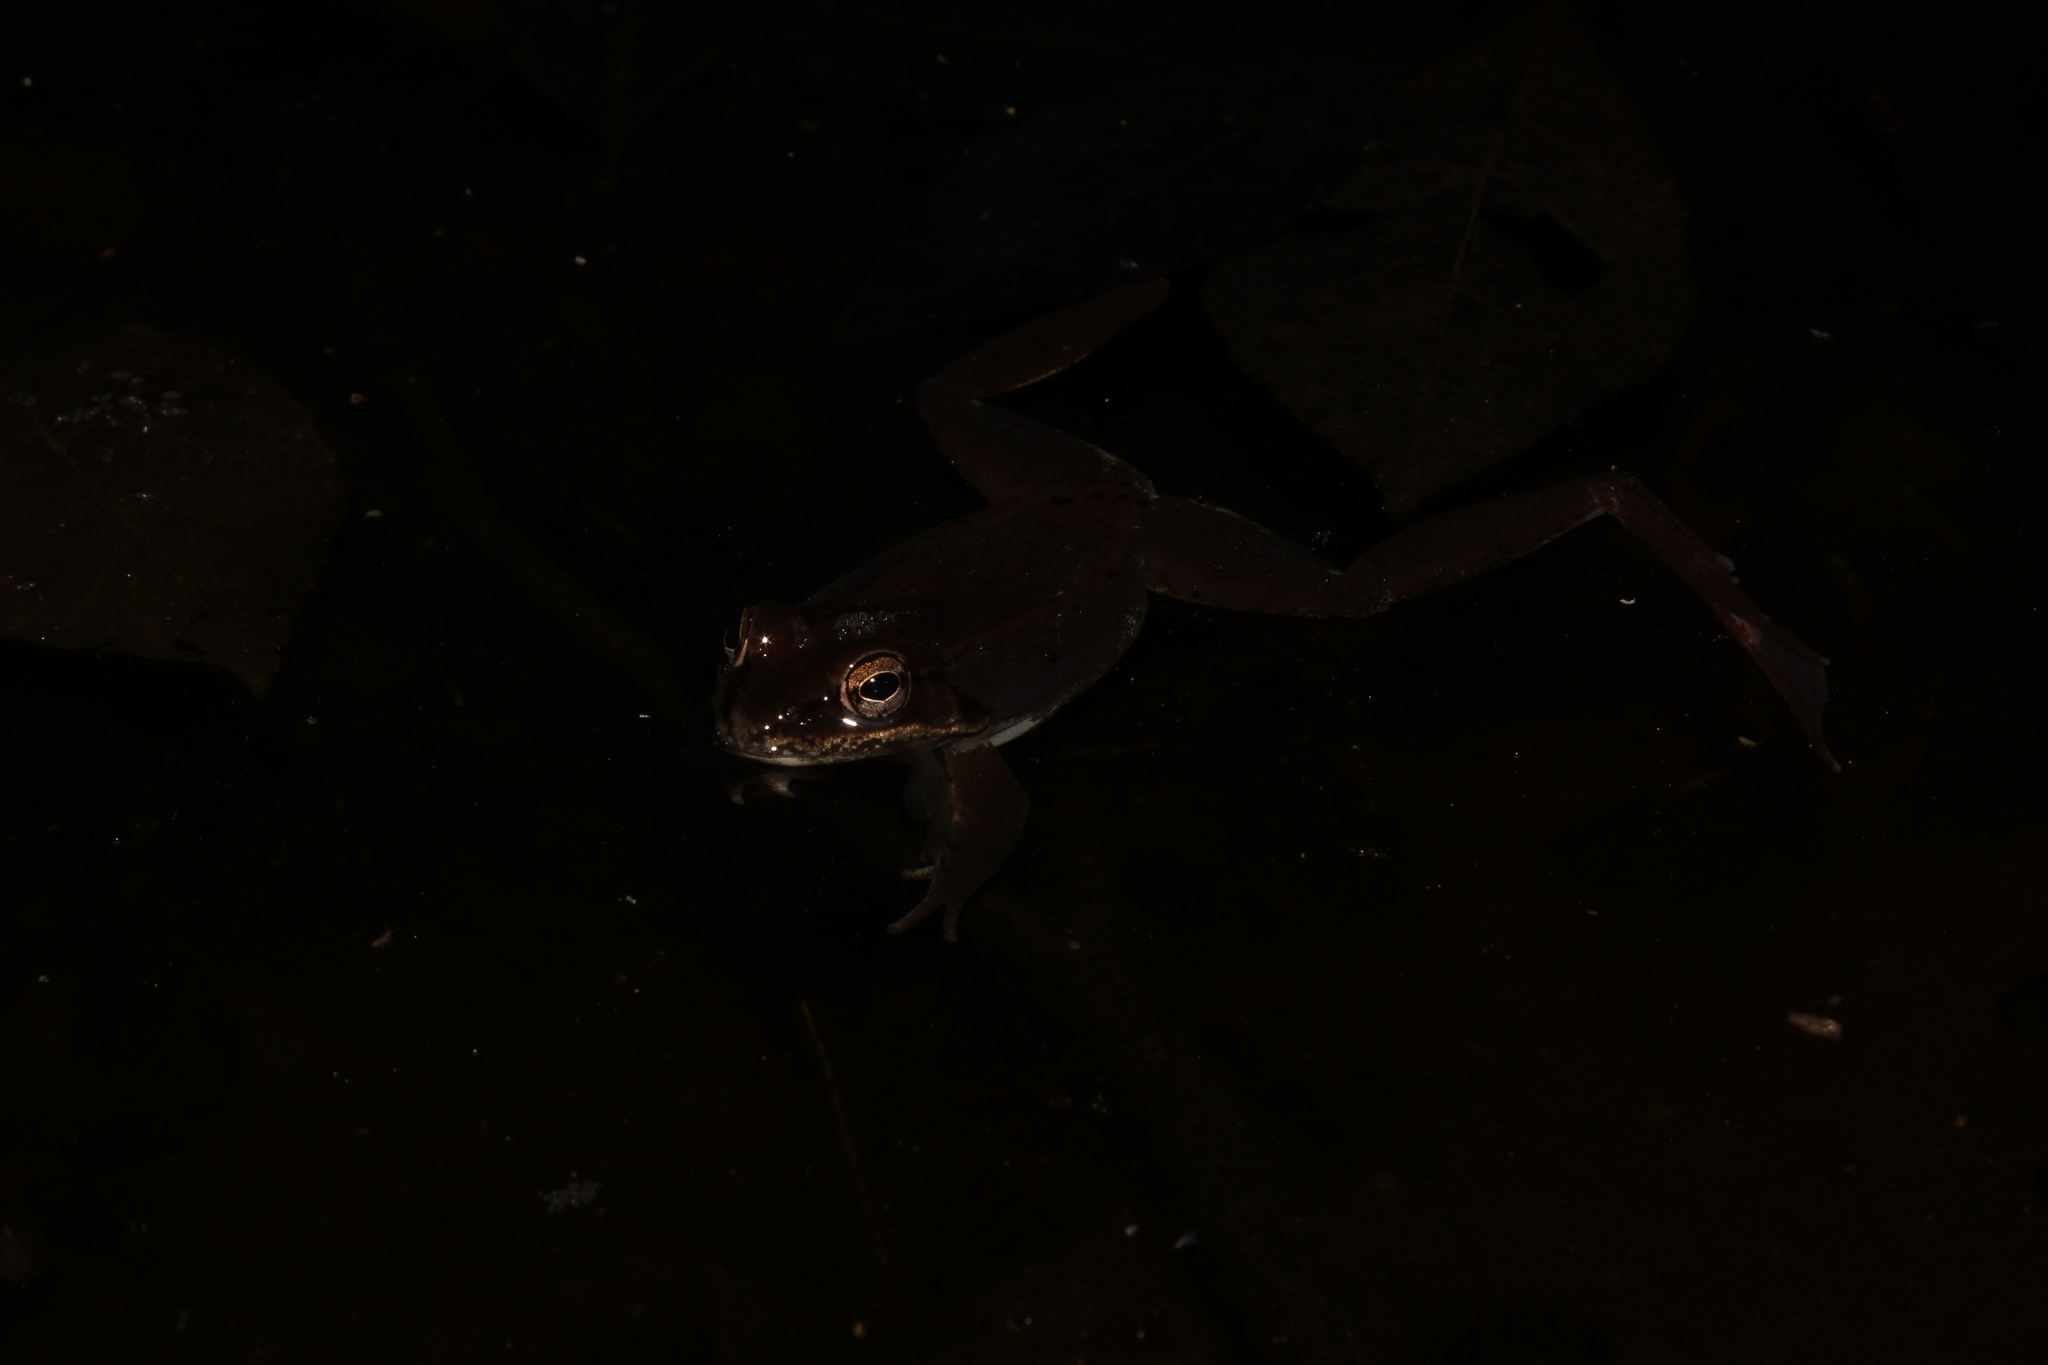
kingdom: Animalia
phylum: Chordata
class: Amphibia
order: Anura
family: Ranidae
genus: Lithobates
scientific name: Lithobates sylvaticus
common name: Wood frog
